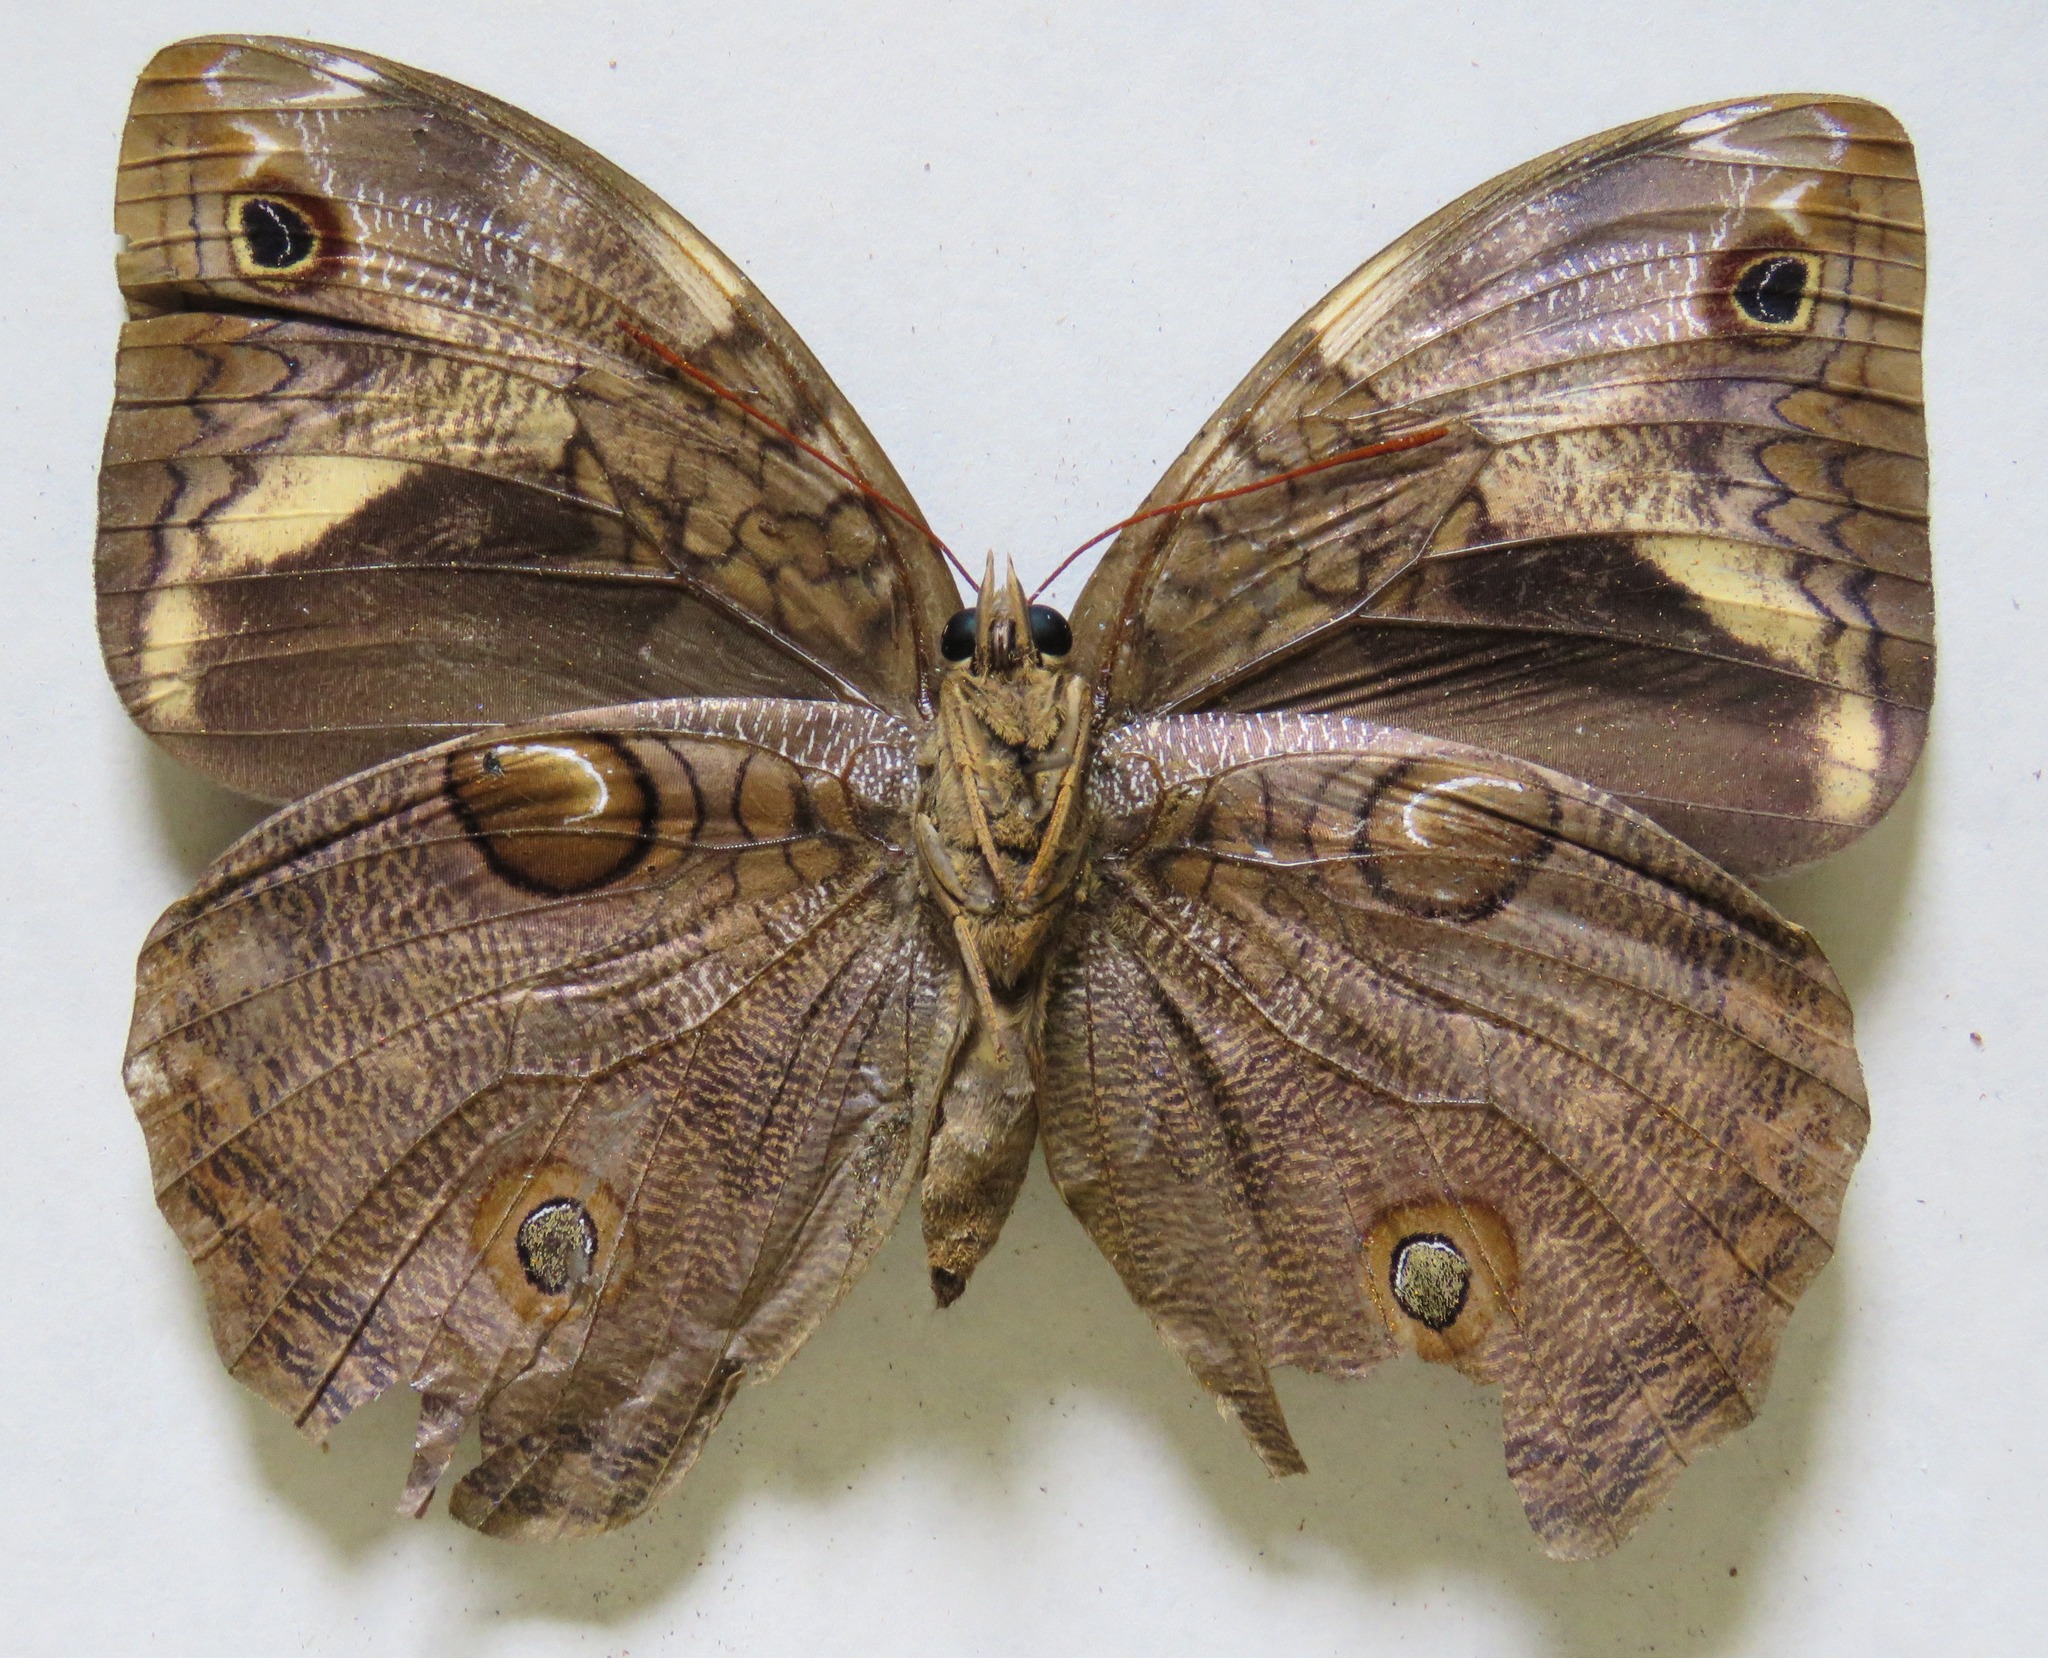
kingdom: Animalia
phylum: Arthropoda
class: Insecta
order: Lepidoptera
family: Nymphalidae
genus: Opsiphanes
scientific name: Opsiphanes cassiae
